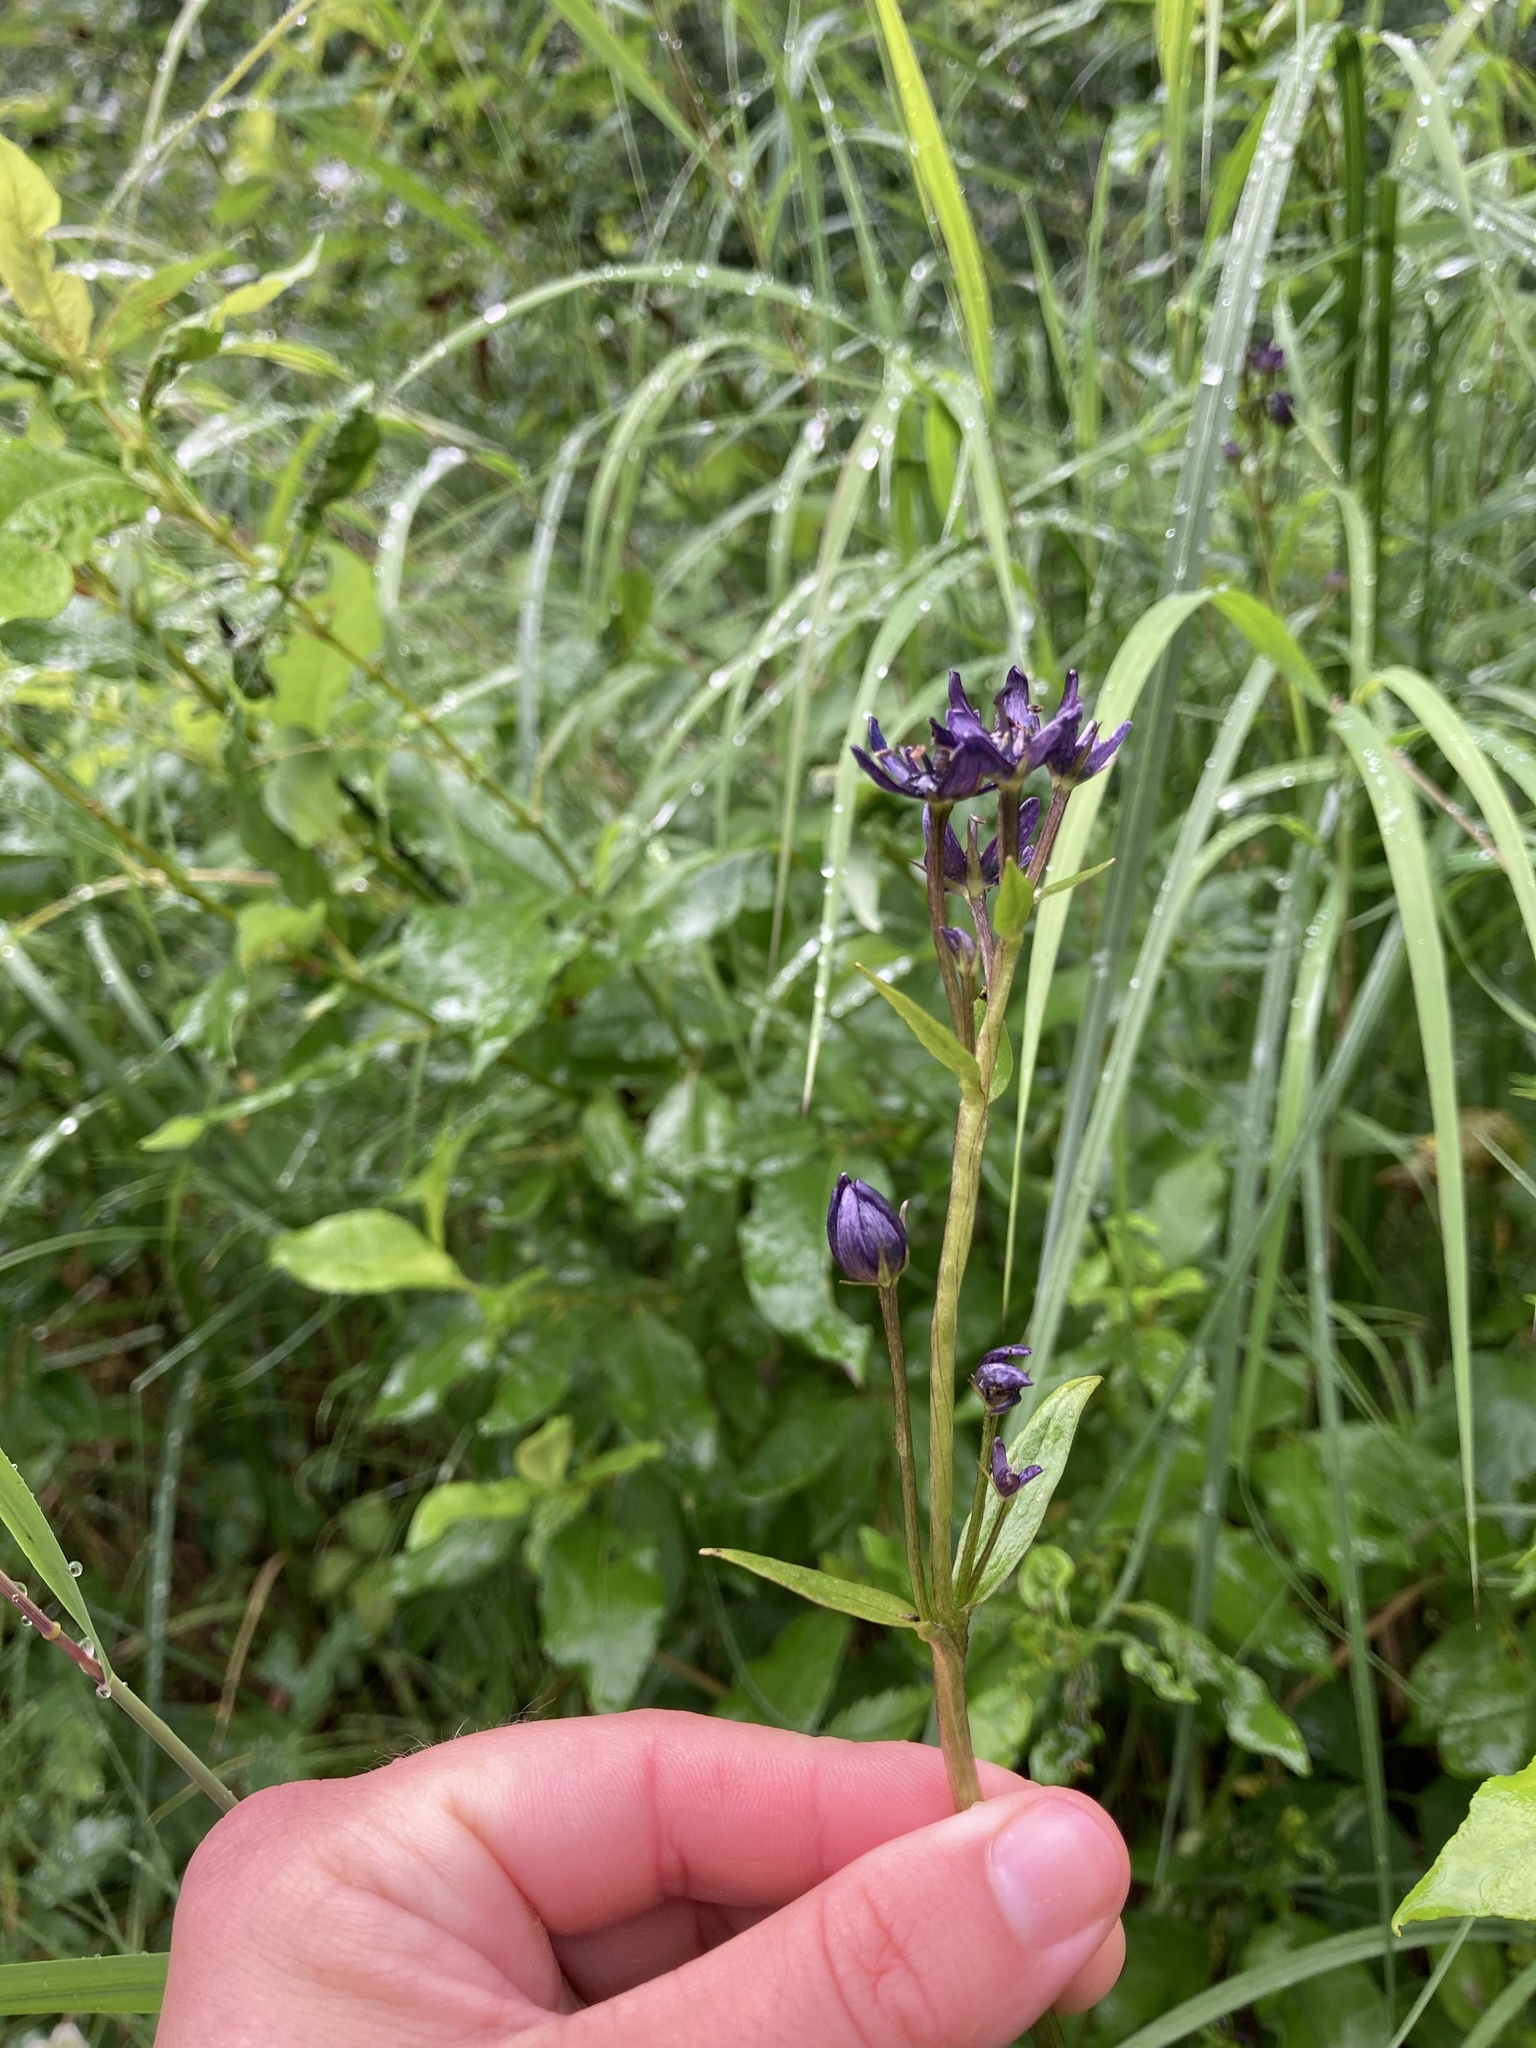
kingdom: Plantae
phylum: Tracheophyta
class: Magnoliopsida
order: Gentianales
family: Gentianaceae
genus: Swertia
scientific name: Swertia perennis
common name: Alpine bog swertia
